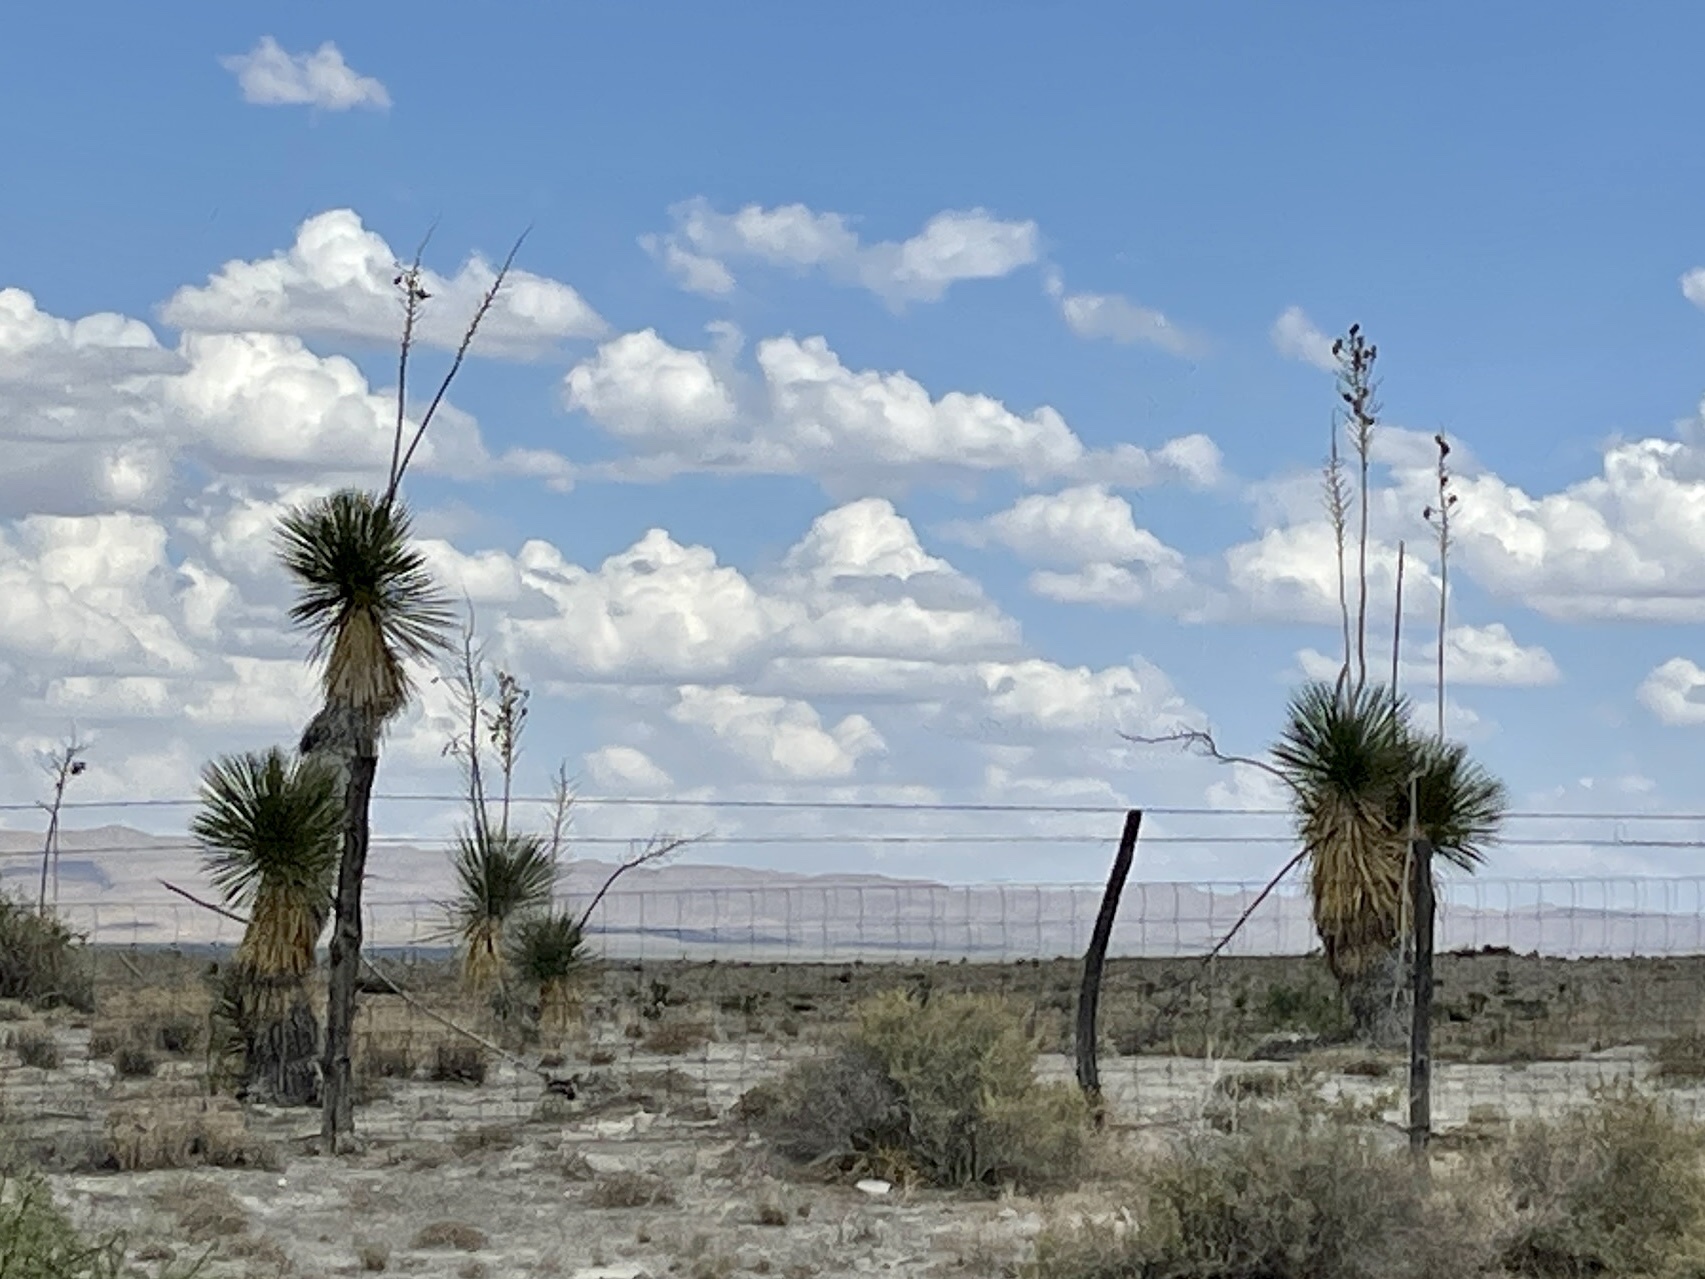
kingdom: Plantae
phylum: Tracheophyta
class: Liliopsida
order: Asparagales
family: Asparagaceae
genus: Yucca
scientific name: Yucca elata
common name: Palmella
